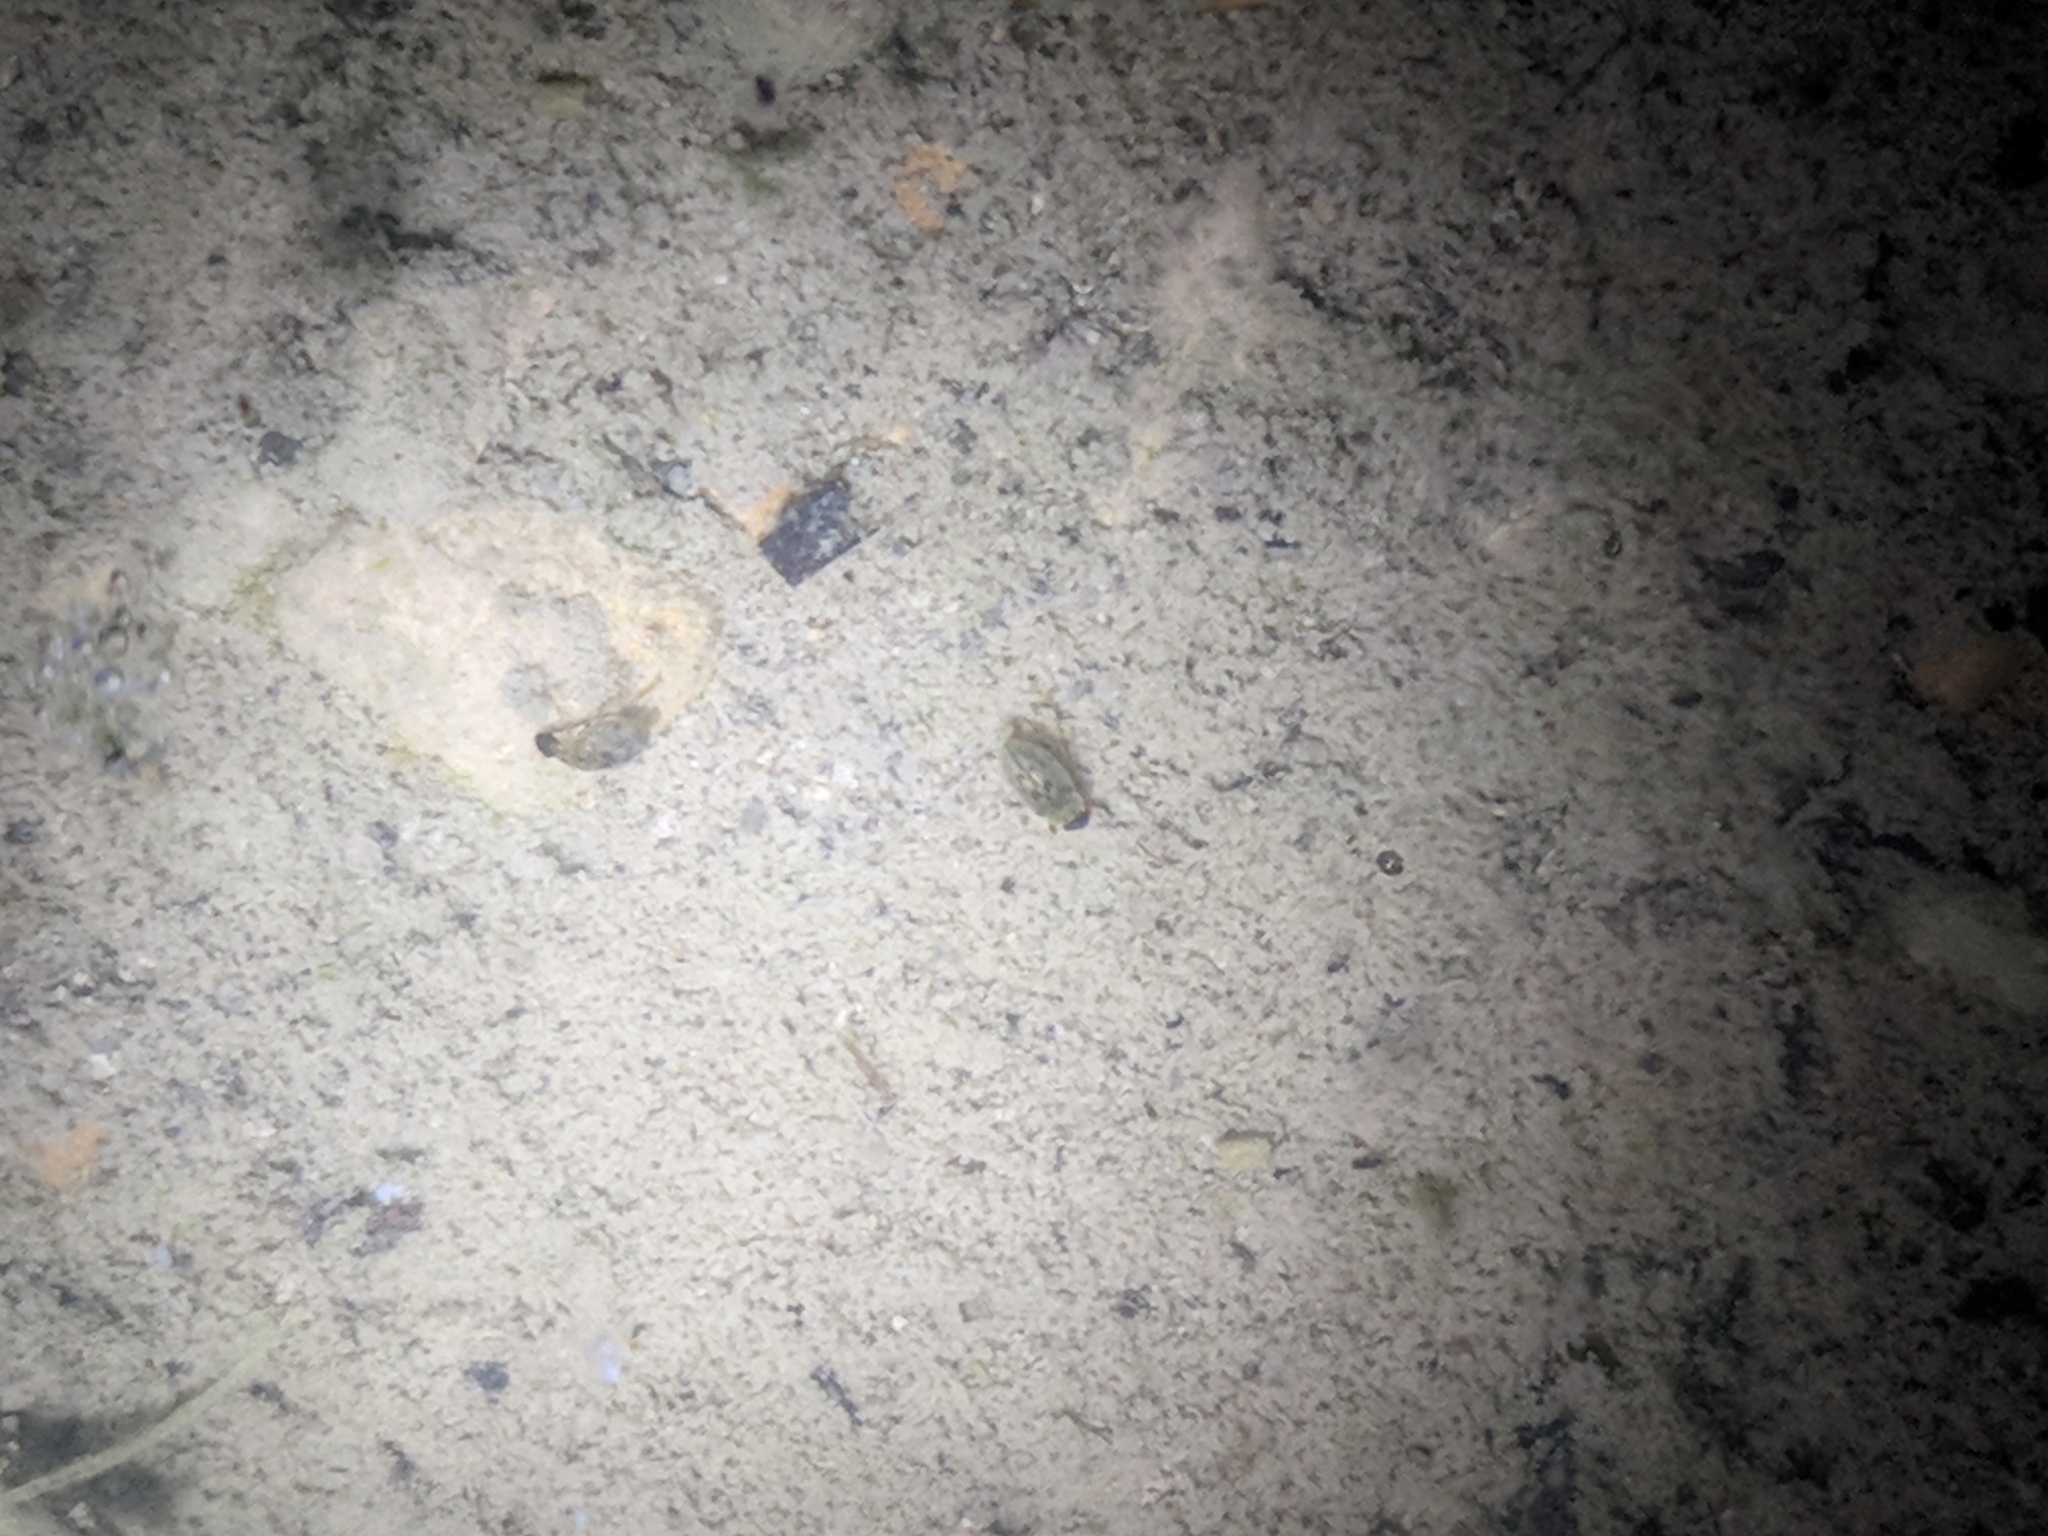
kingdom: Animalia
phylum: Arthropoda
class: Insecta
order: Coleoptera
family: Hydrophilidae
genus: Berosus
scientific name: Berosus
